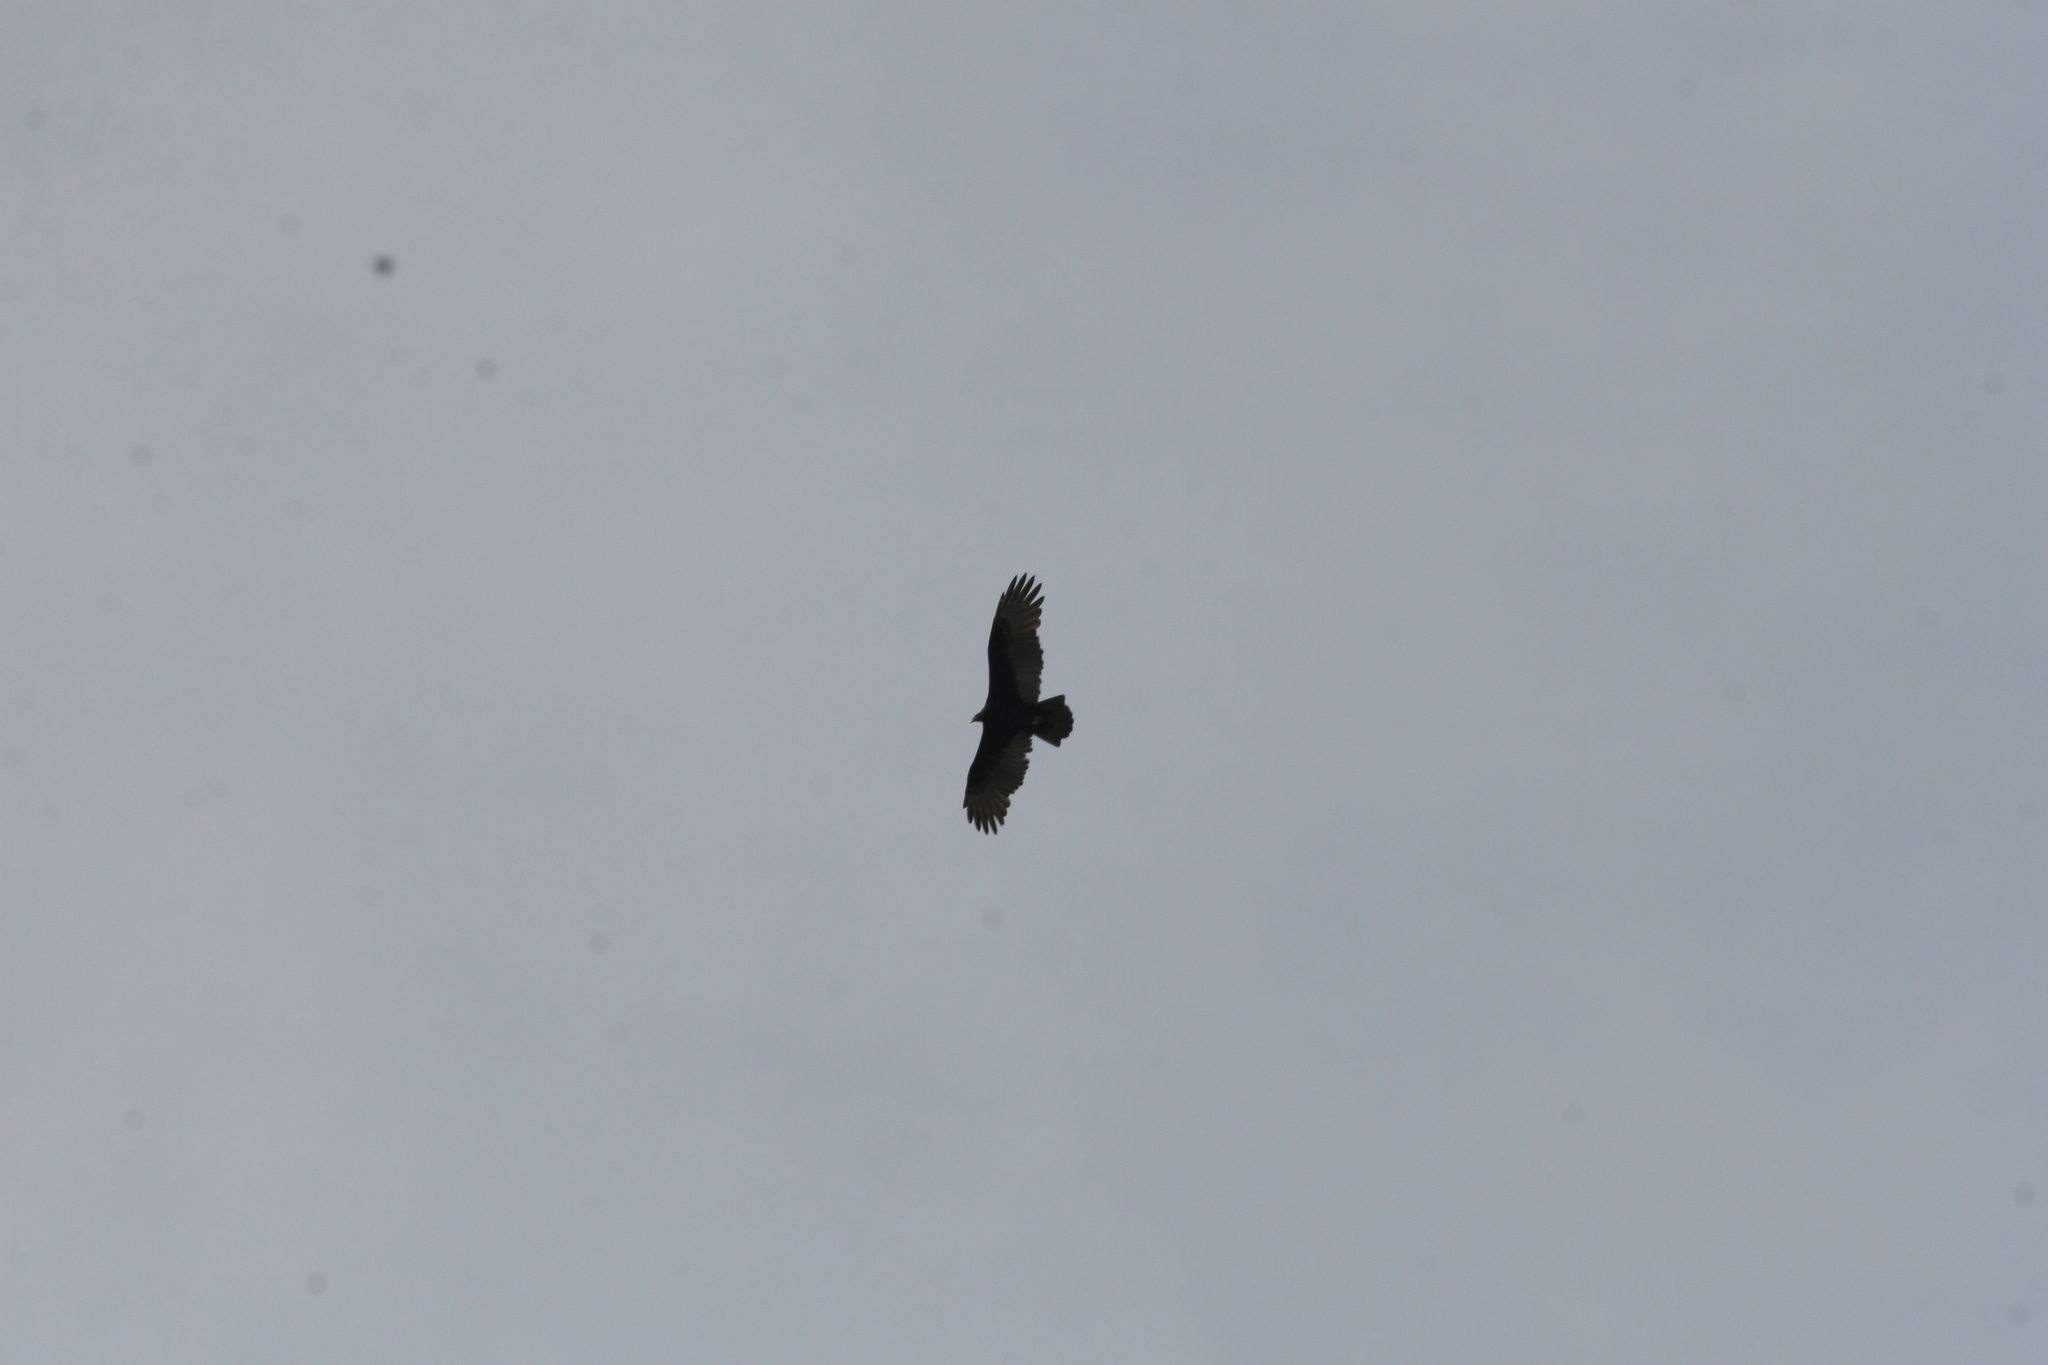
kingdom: Animalia
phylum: Chordata
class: Aves
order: Accipitriformes
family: Cathartidae
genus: Cathartes
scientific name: Cathartes aura
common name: Turkey vulture
